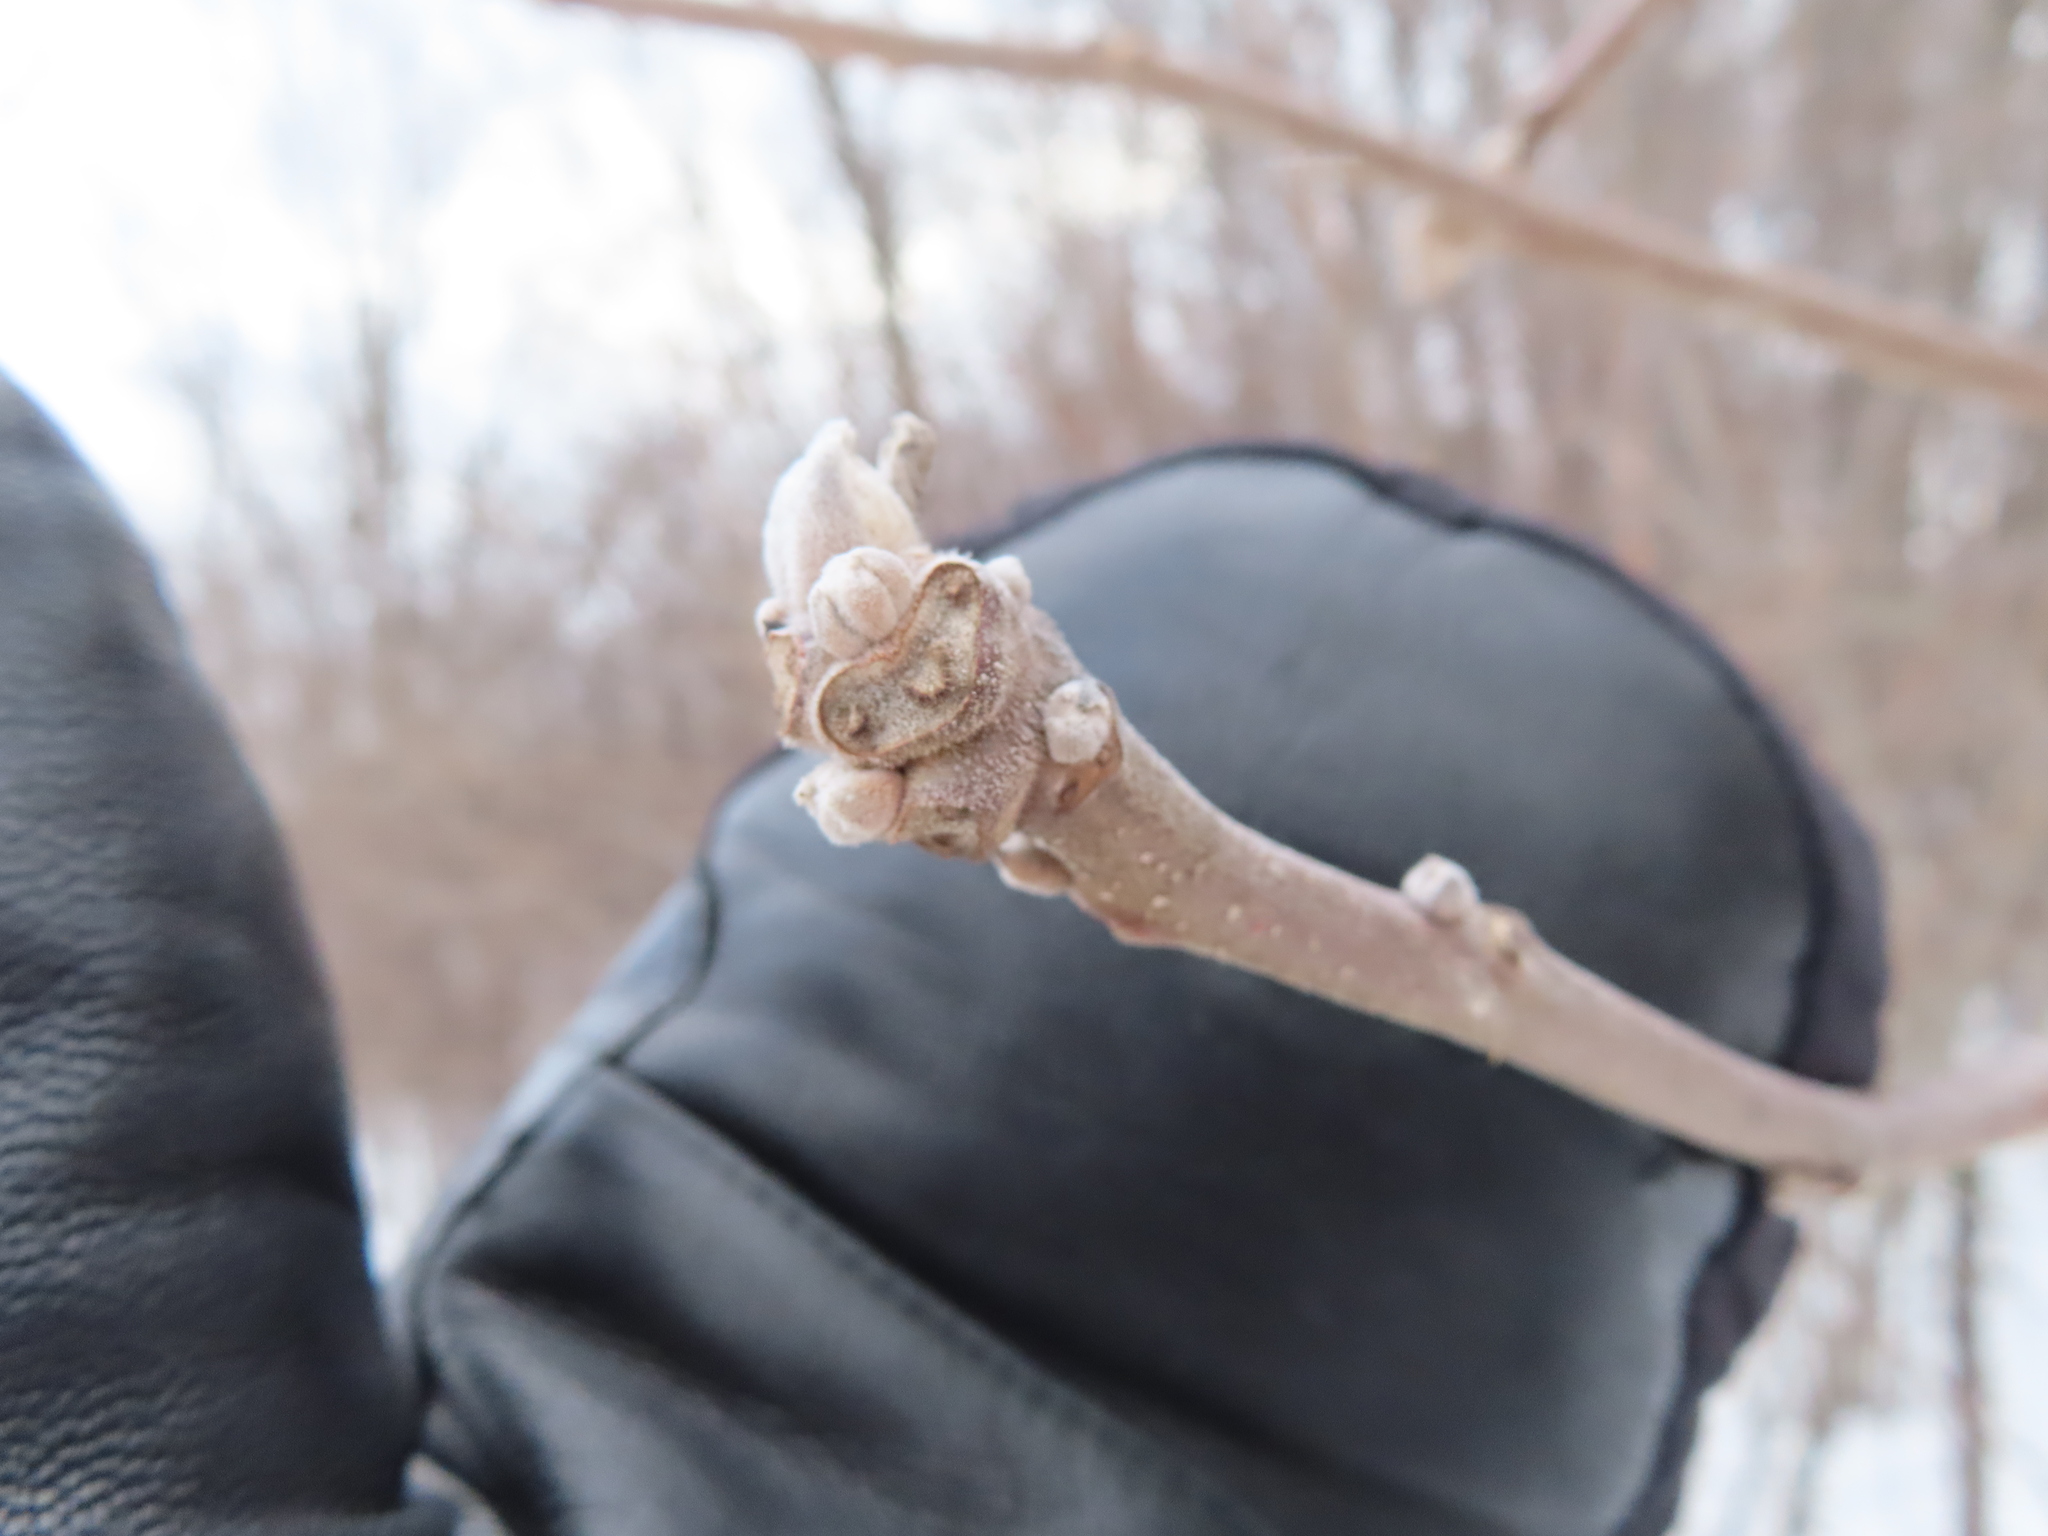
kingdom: Plantae
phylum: Tracheophyta
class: Magnoliopsida
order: Fagales
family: Juglandaceae
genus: Juglans
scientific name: Juglans nigra
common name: Black walnut
